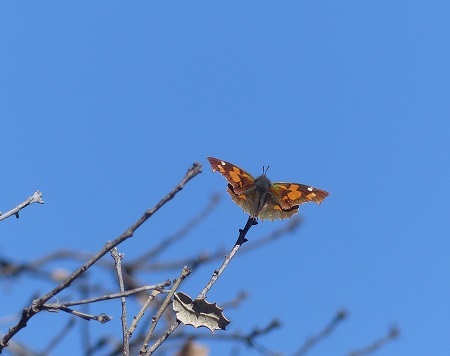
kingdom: Animalia
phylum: Arthropoda
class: Insecta
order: Lepidoptera
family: Nymphalidae
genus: Libythea
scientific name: Libythea celtis
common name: Nettle-tree butterfly
